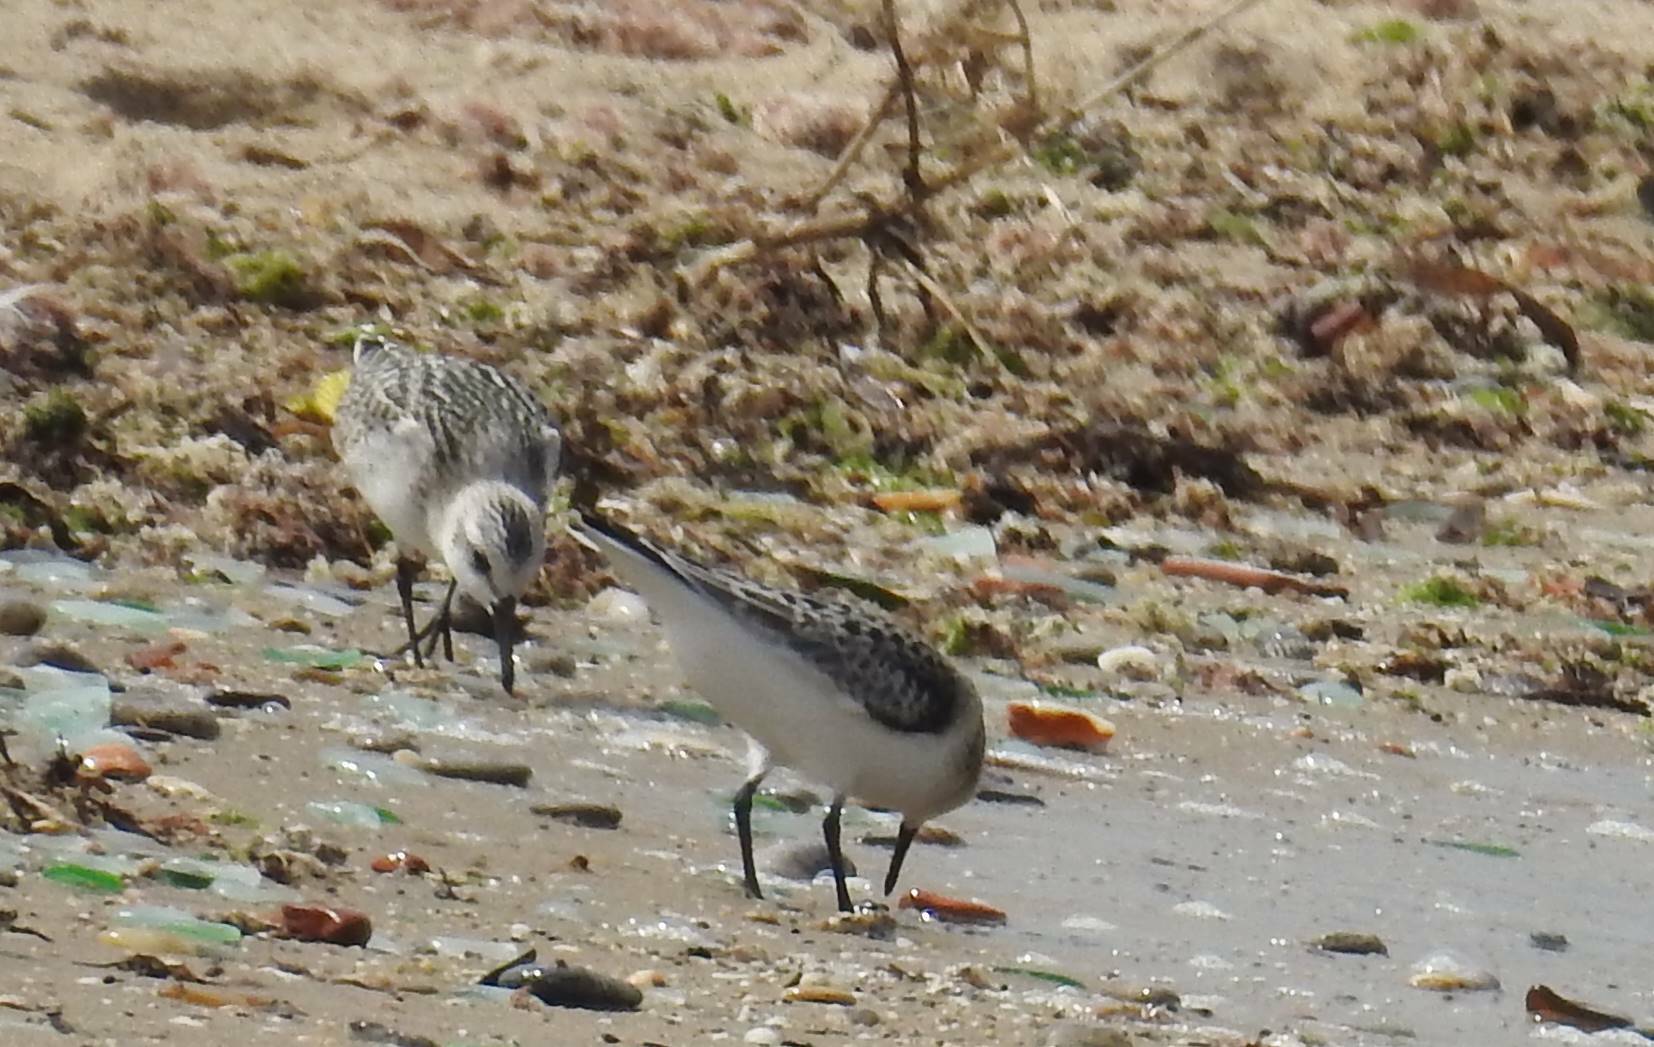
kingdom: Animalia
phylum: Chordata
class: Aves
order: Charadriiformes
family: Scolopacidae
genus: Calidris
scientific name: Calidris alba
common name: Sanderling
